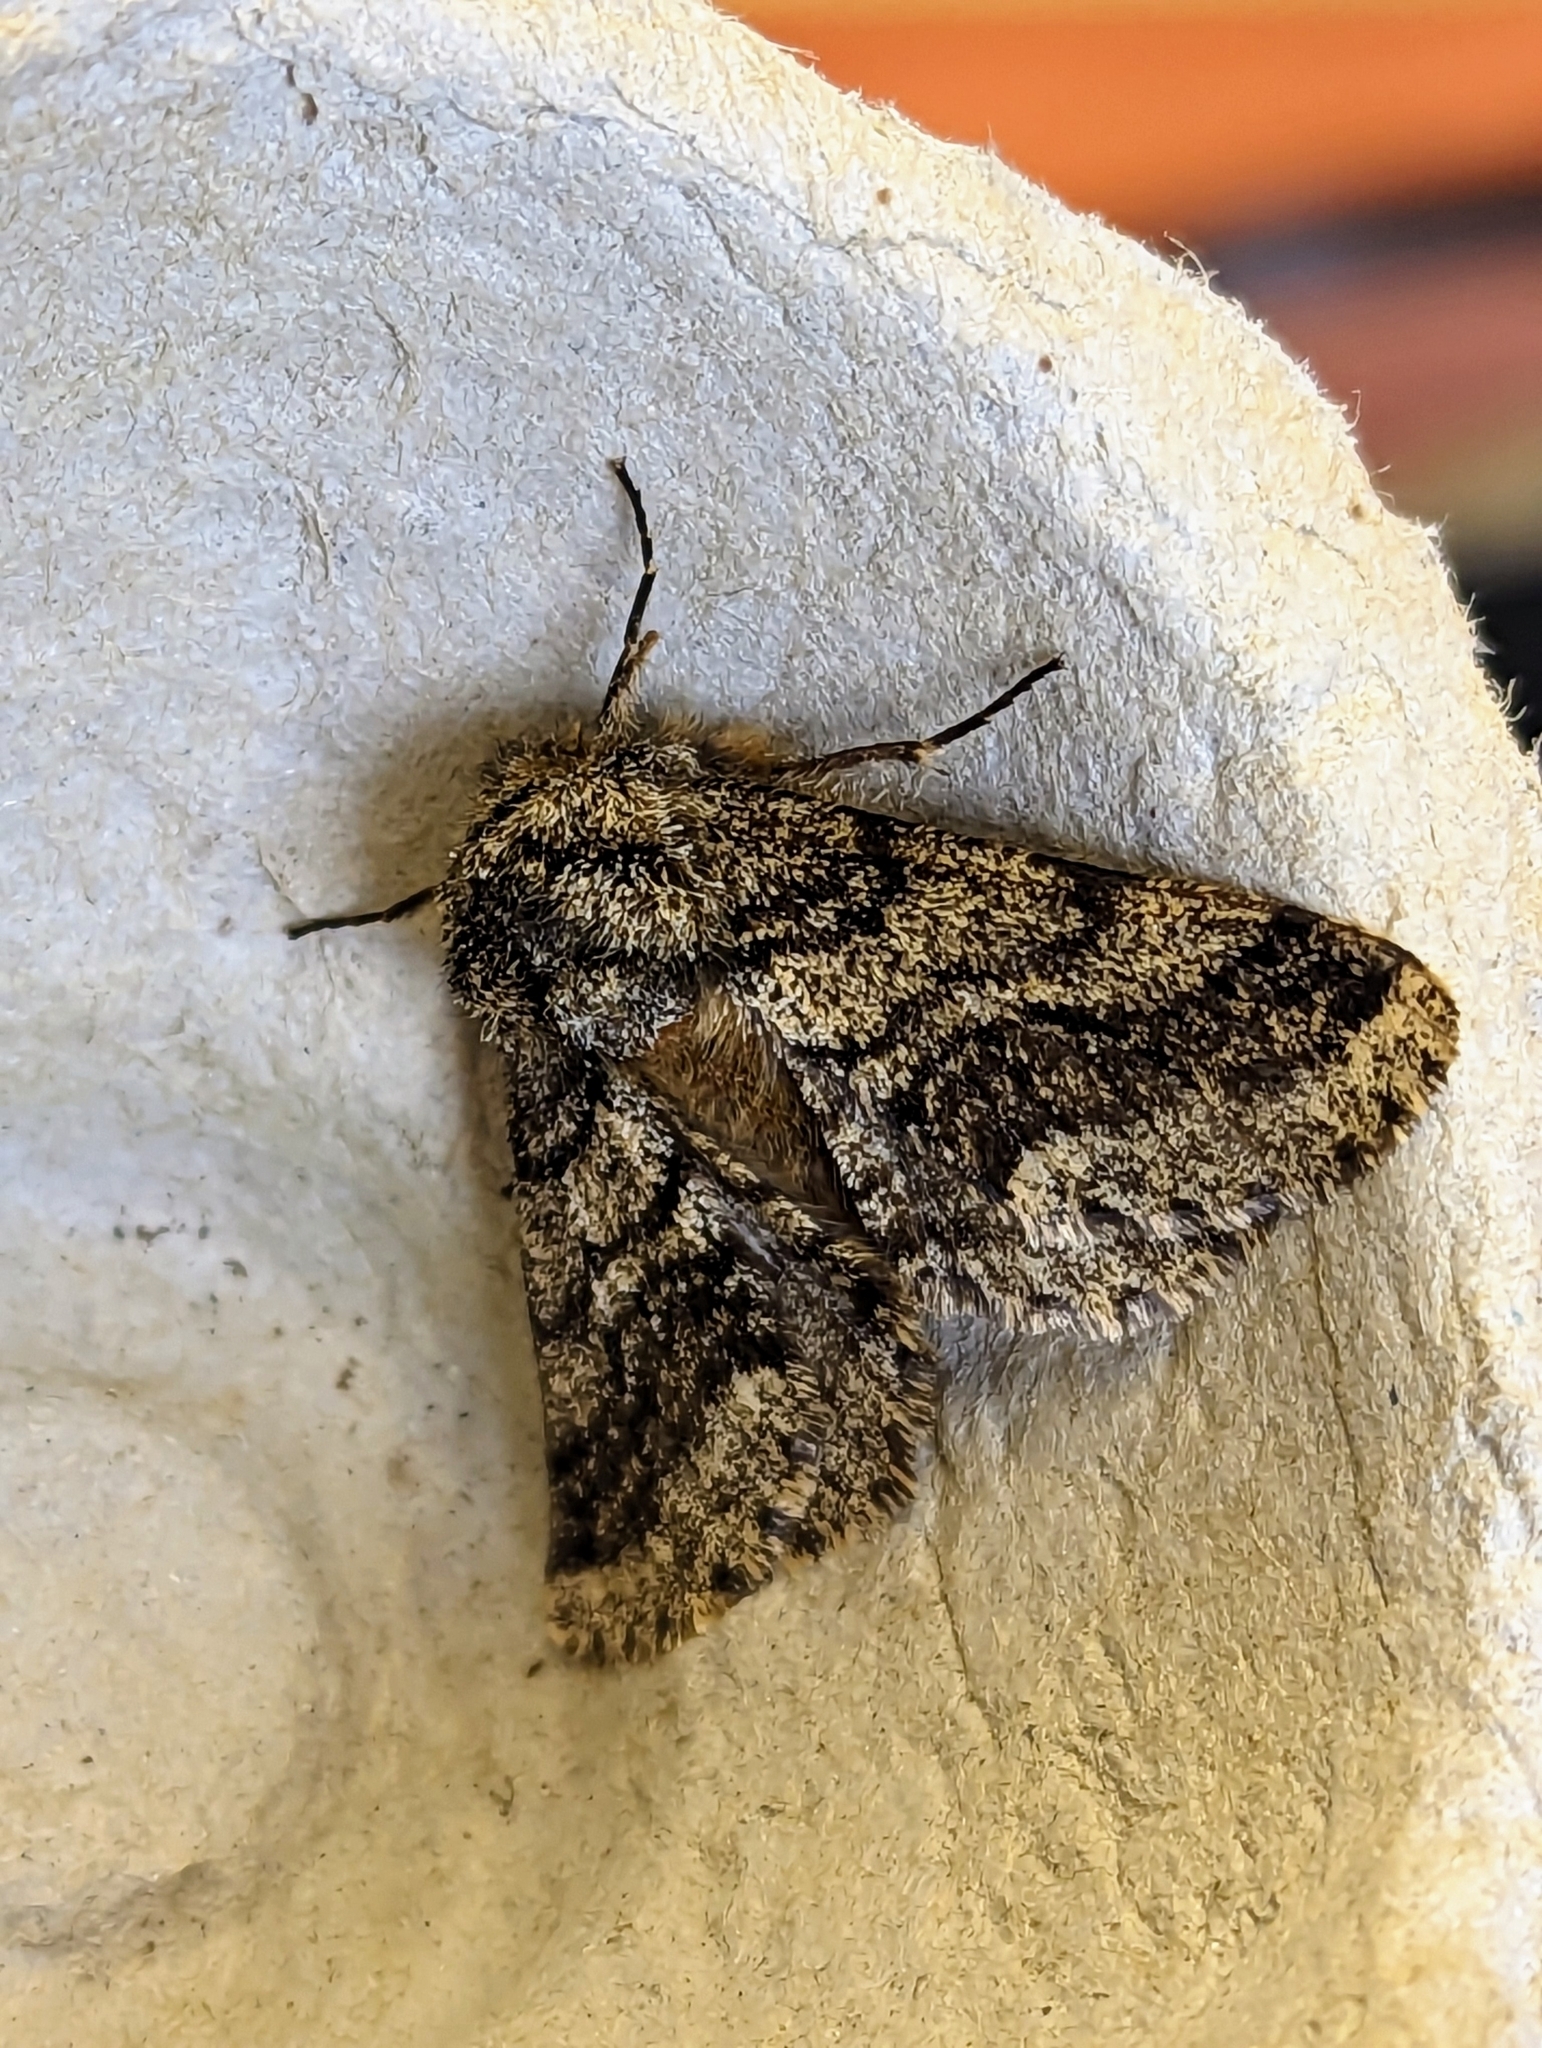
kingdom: Animalia
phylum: Arthropoda
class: Insecta
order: Lepidoptera
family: Geometridae
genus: Lycia
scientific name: Lycia hirtaria
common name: Brindled beauty
